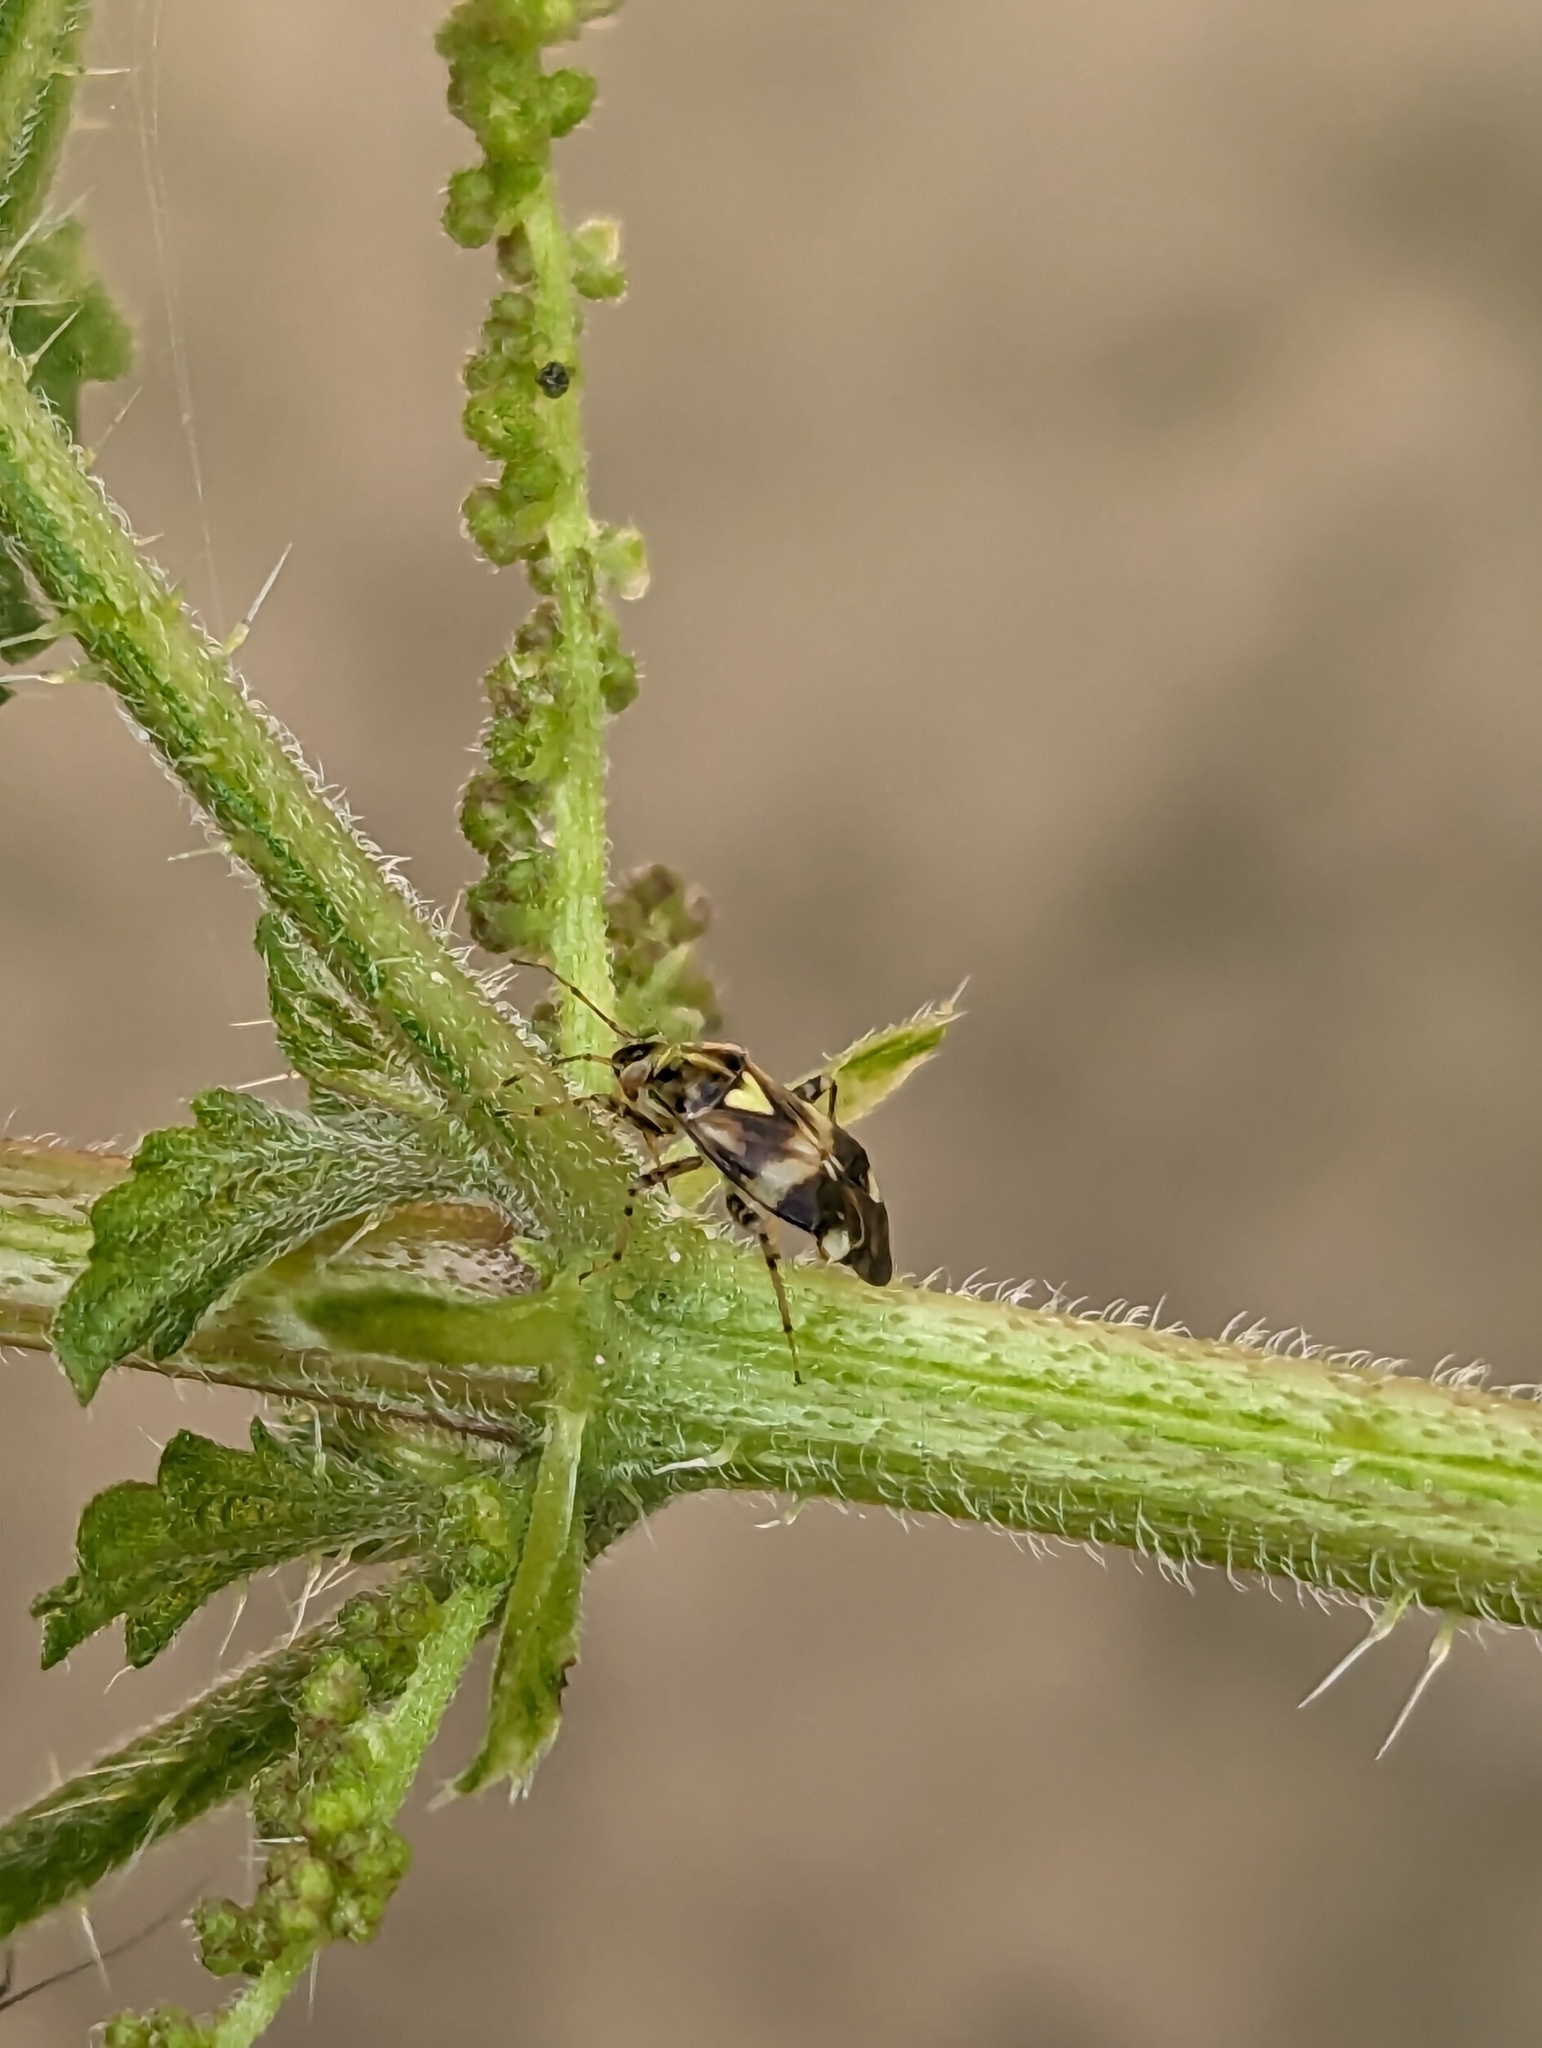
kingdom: Animalia
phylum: Arthropoda
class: Insecta
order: Hemiptera
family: Miridae
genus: Liocoris
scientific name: Liocoris tripustulatus
